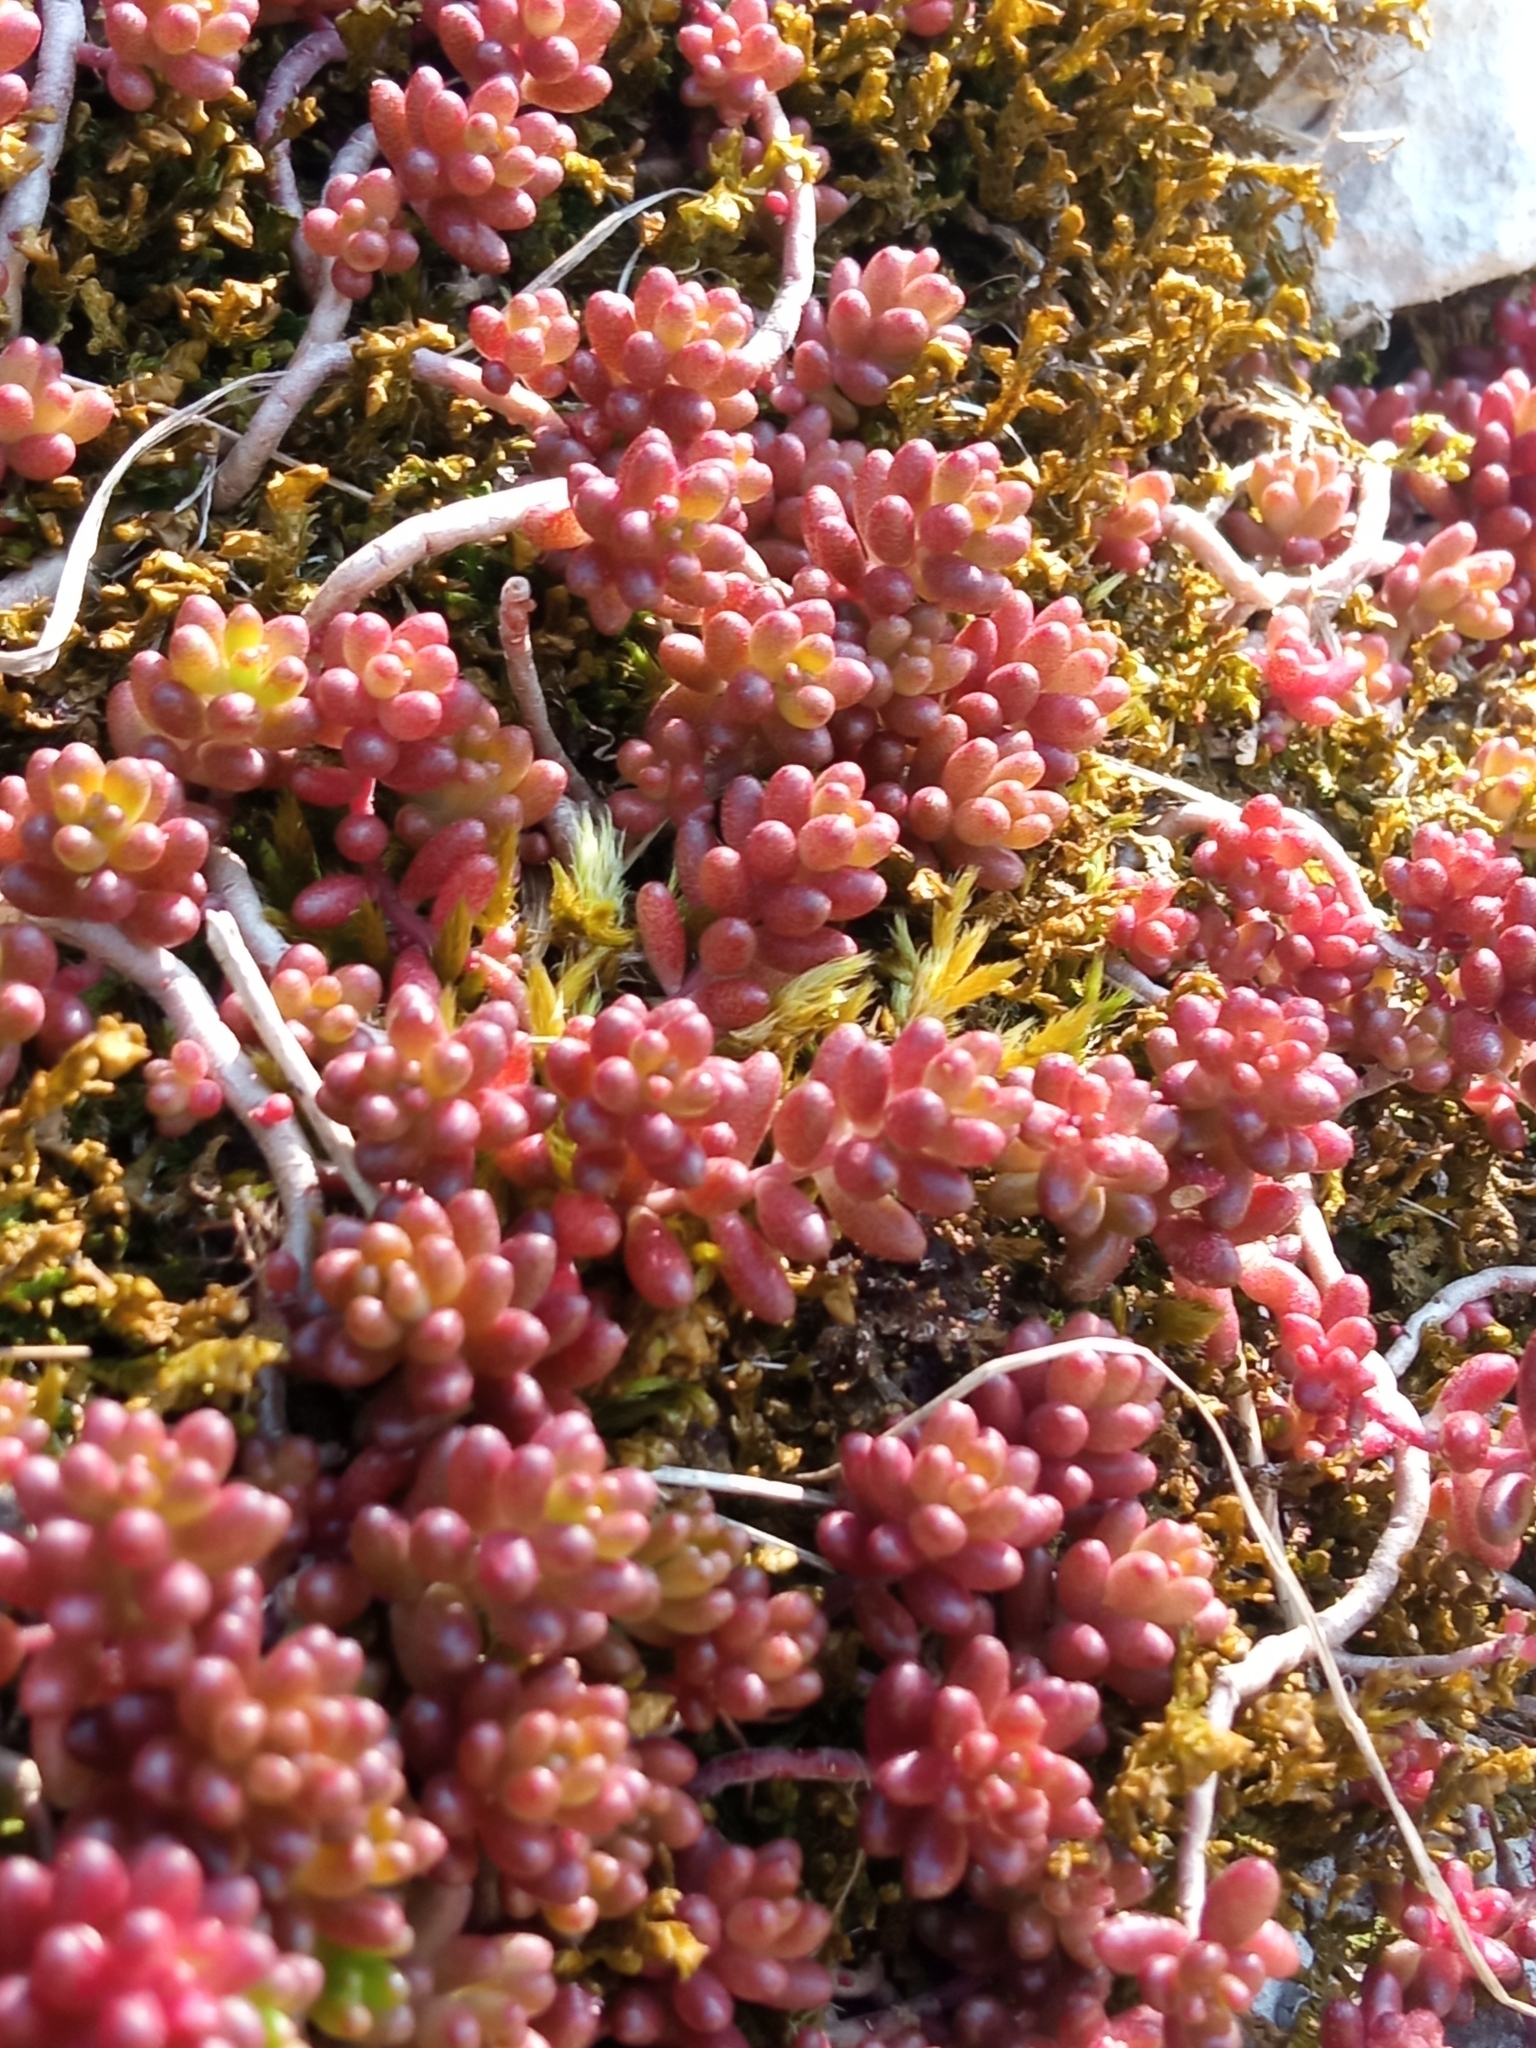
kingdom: Plantae
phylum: Tracheophyta
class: Magnoliopsida
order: Saxifragales
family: Crassulaceae
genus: Sedum
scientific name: Sedum album
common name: White stonecrop
